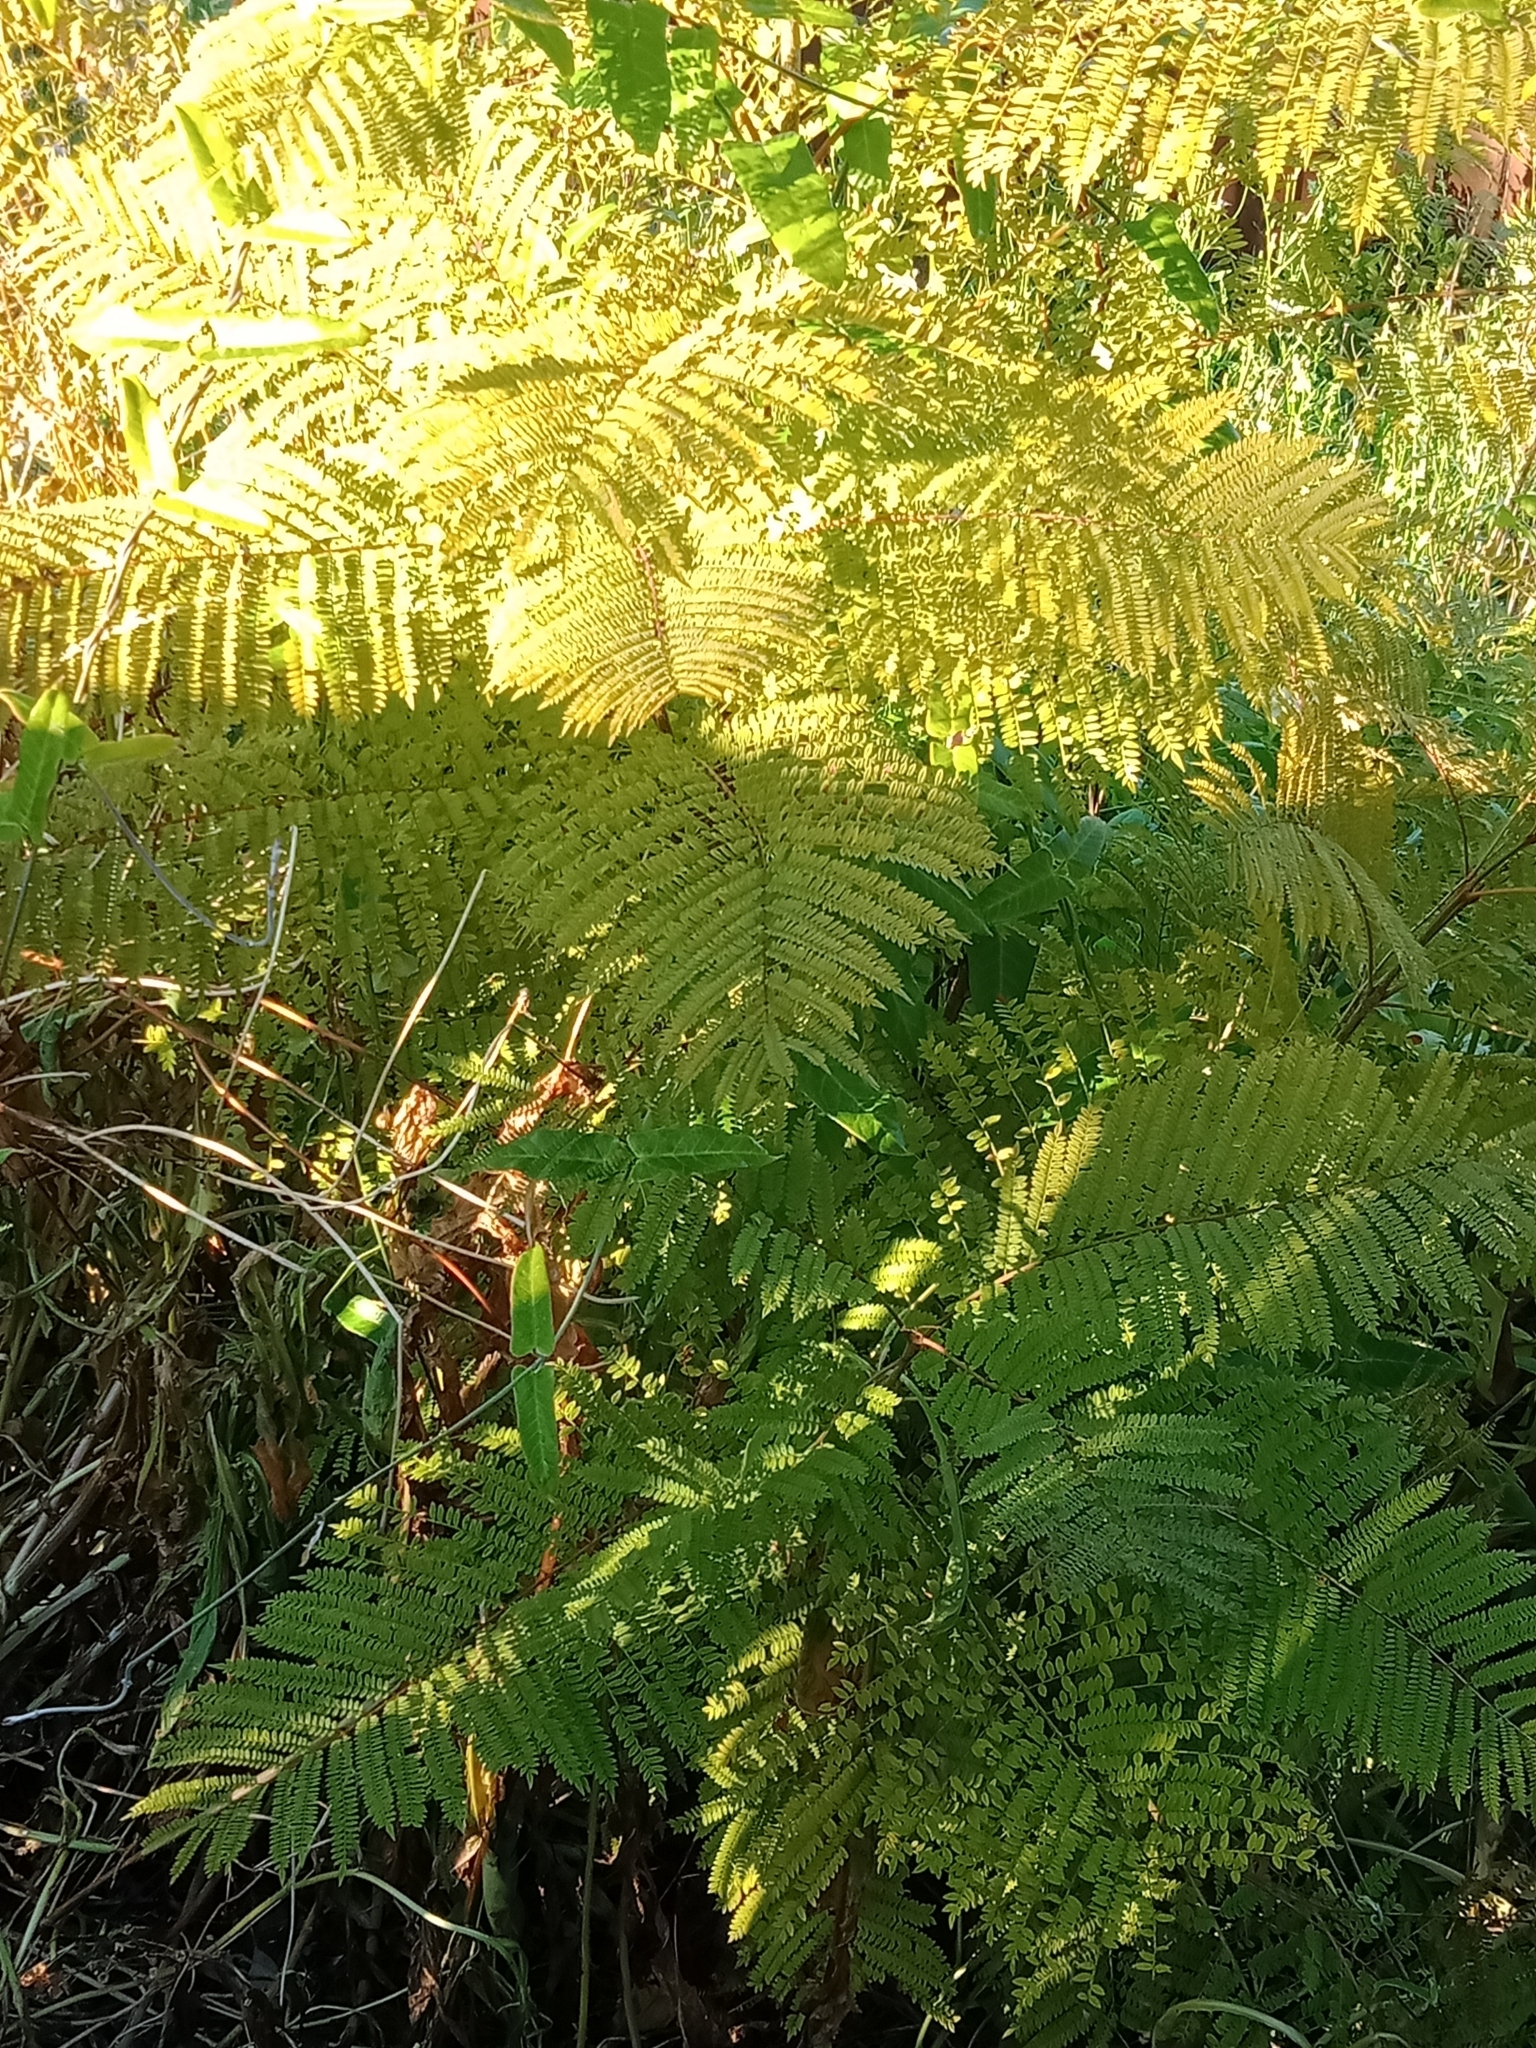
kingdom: Plantae
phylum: Tracheophyta
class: Magnoliopsida
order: Lamiales
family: Bignoniaceae
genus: Jacaranda
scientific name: Jacaranda mimosifolia
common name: Black poui
